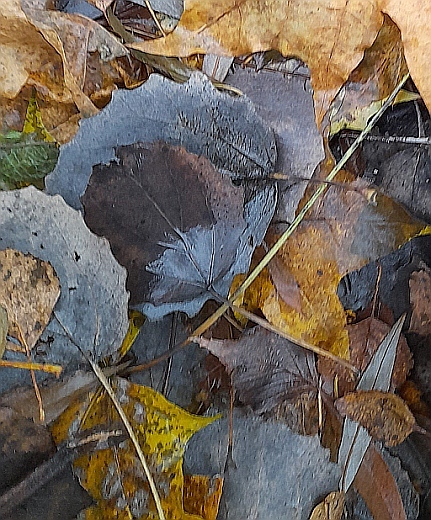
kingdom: Plantae
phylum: Tracheophyta
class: Magnoliopsida
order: Malpighiales
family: Salicaceae
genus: Populus
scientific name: Populus tremula
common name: European aspen
